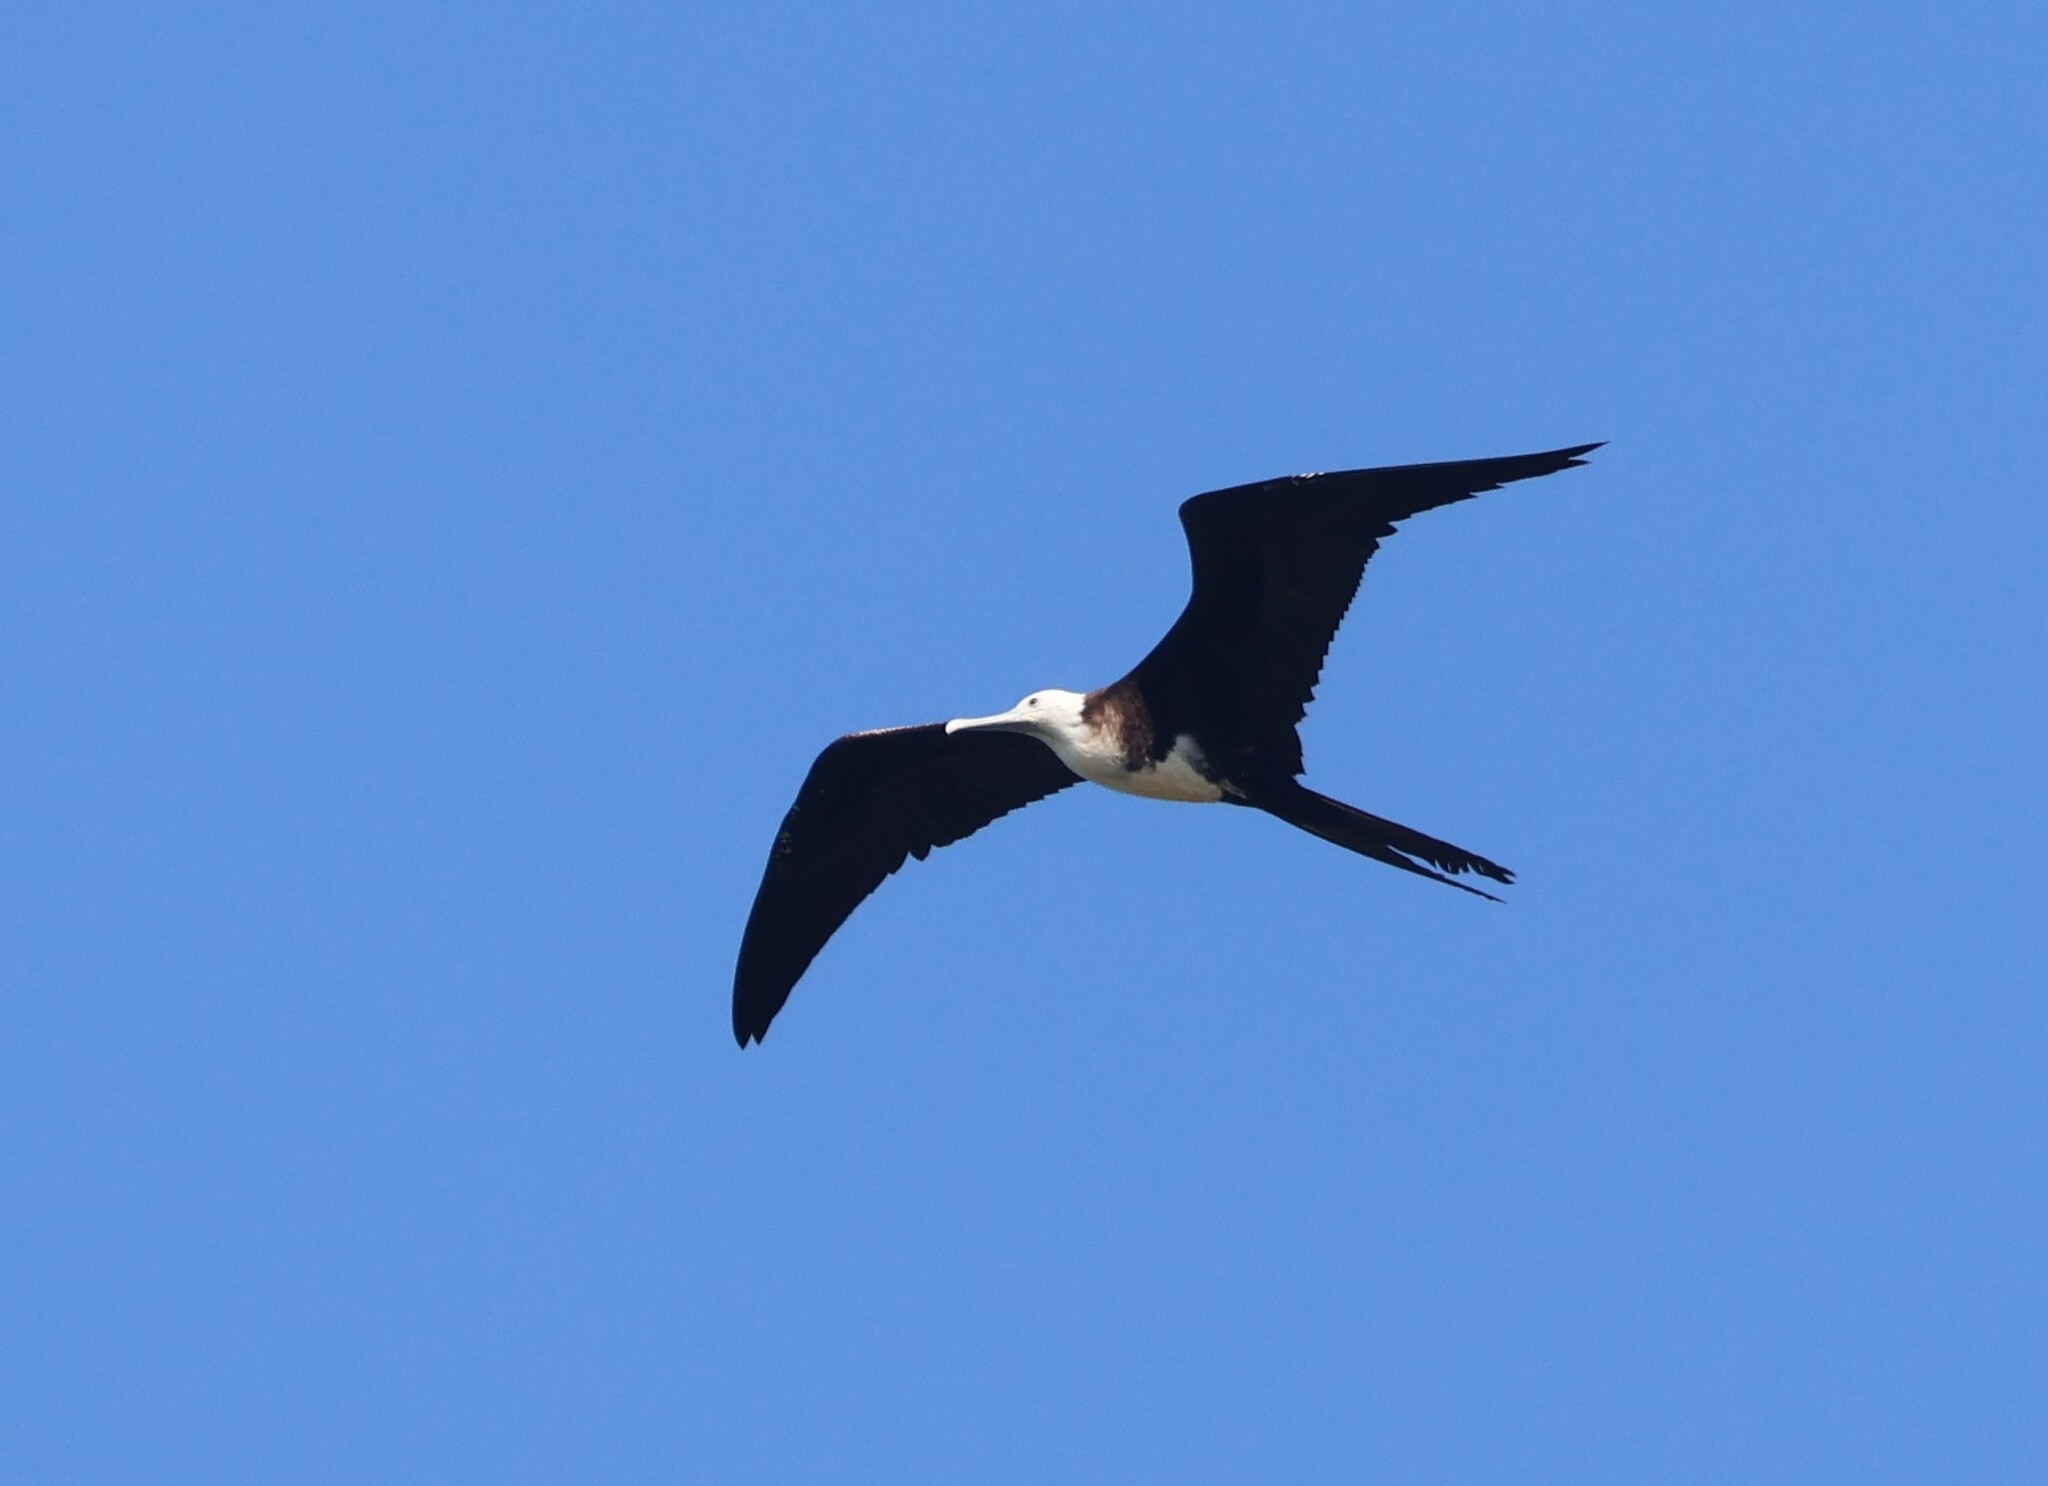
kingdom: Animalia
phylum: Chordata
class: Aves
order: Suliformes
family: Fregatidae
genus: Fregata
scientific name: Fregata magnificens
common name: Magnificent frigatebird
